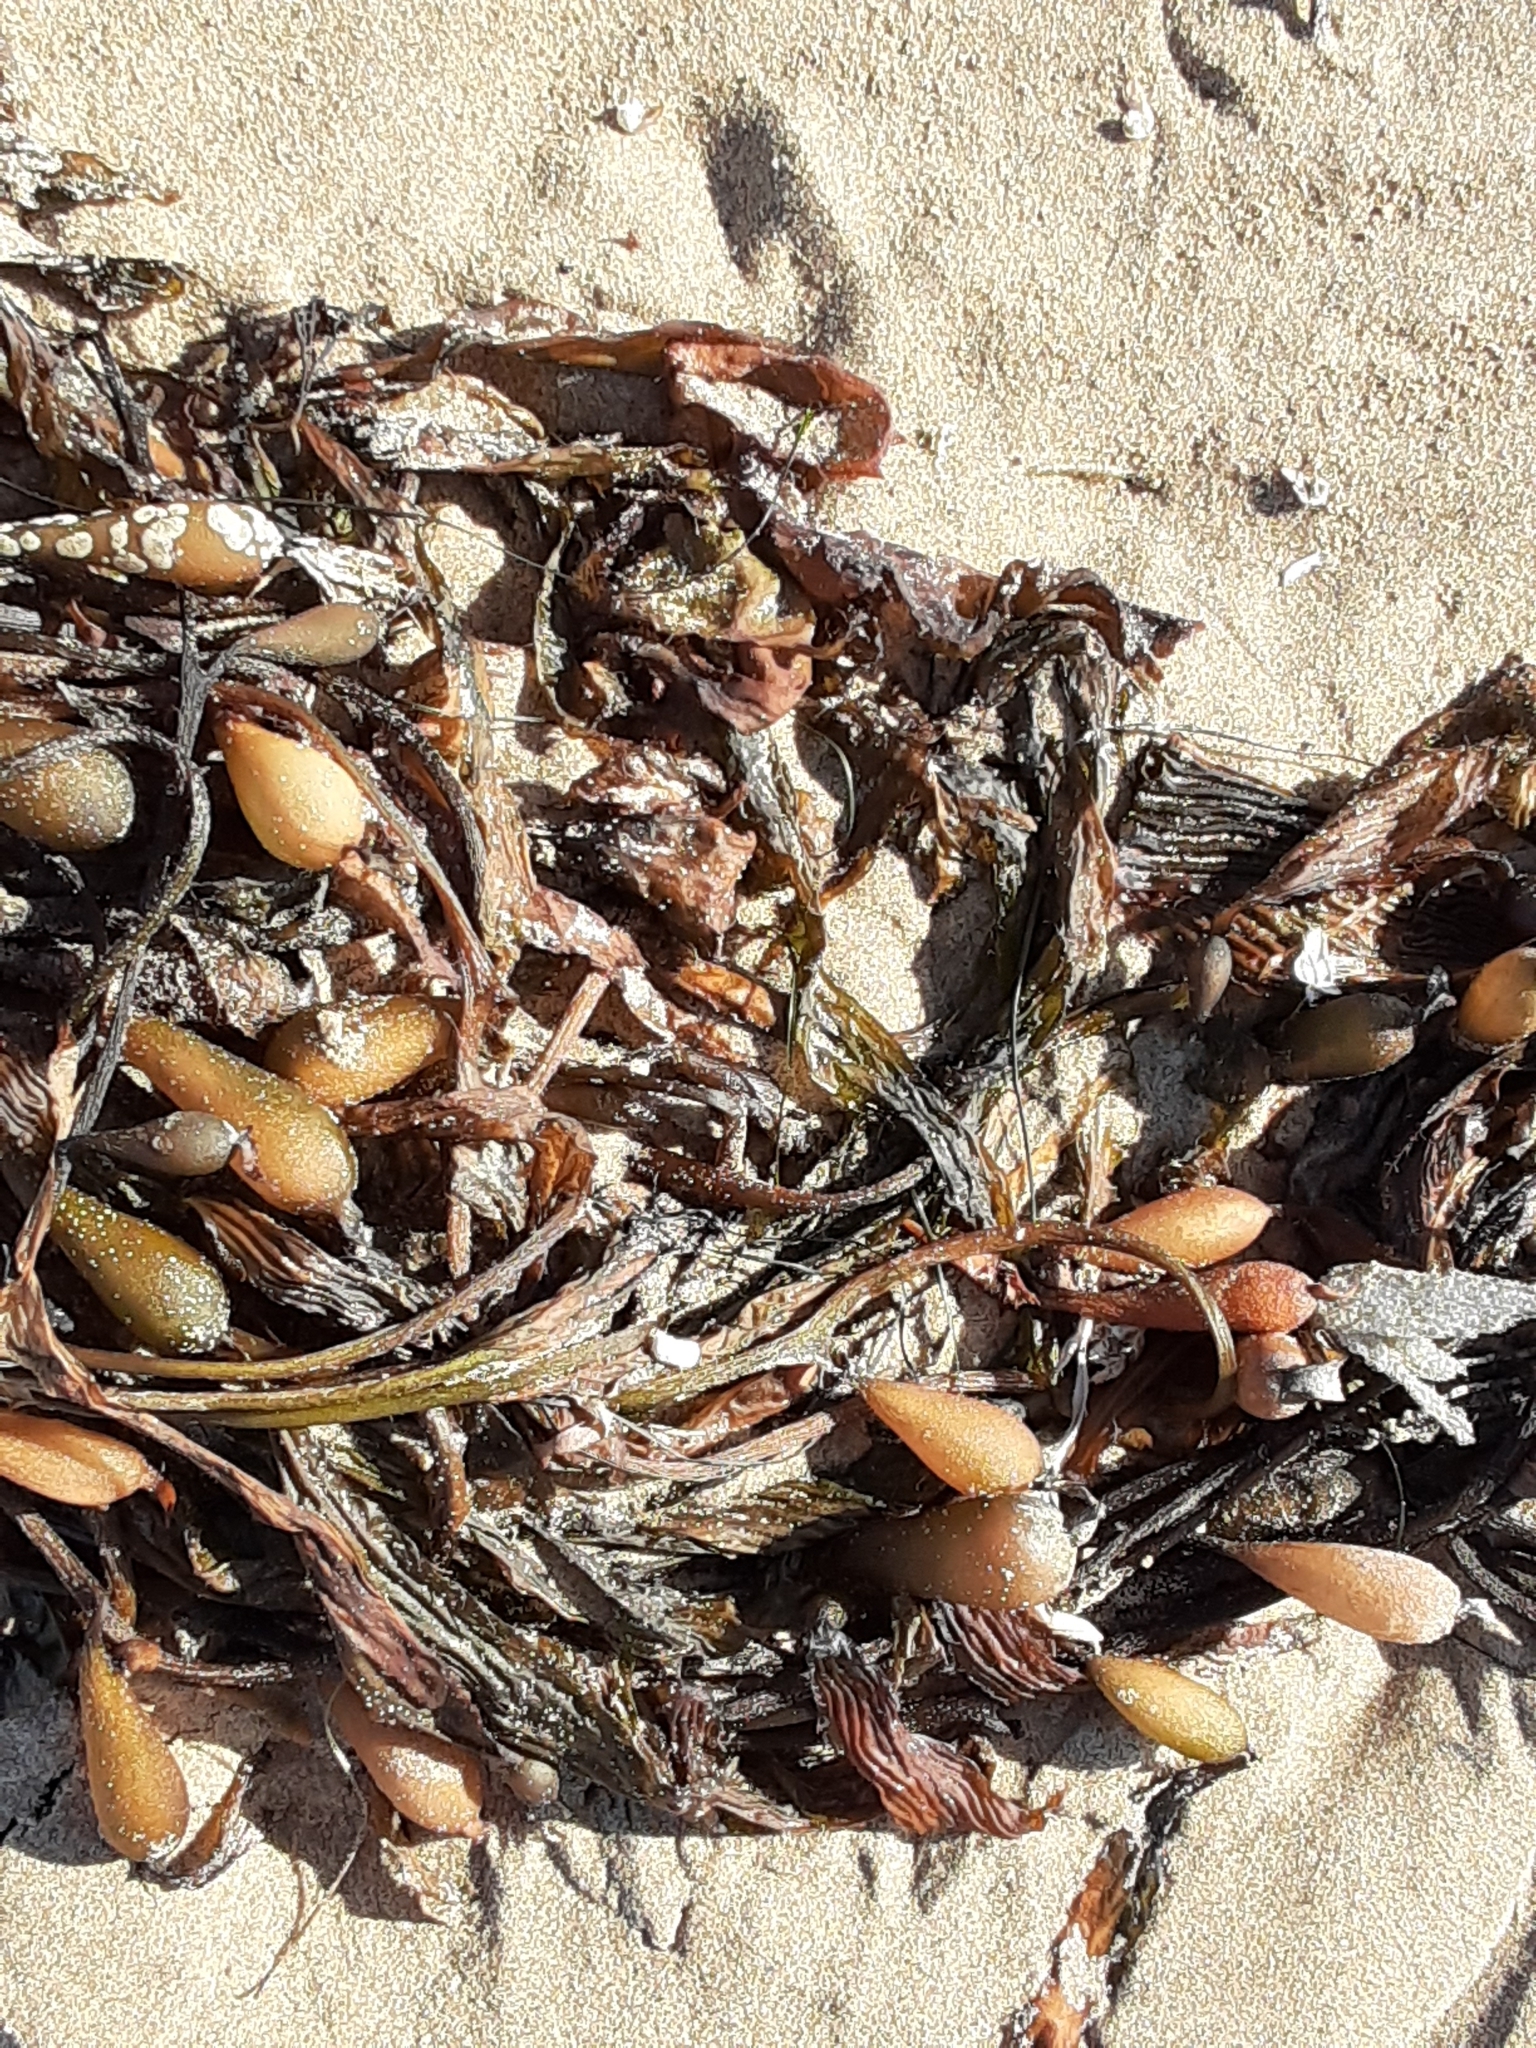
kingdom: Chromista
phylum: Ochrophyta
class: Phaeophyceae
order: Laminariales
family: Laminariaceae
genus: Macrocystis
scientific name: Macrocystis pyrifera
